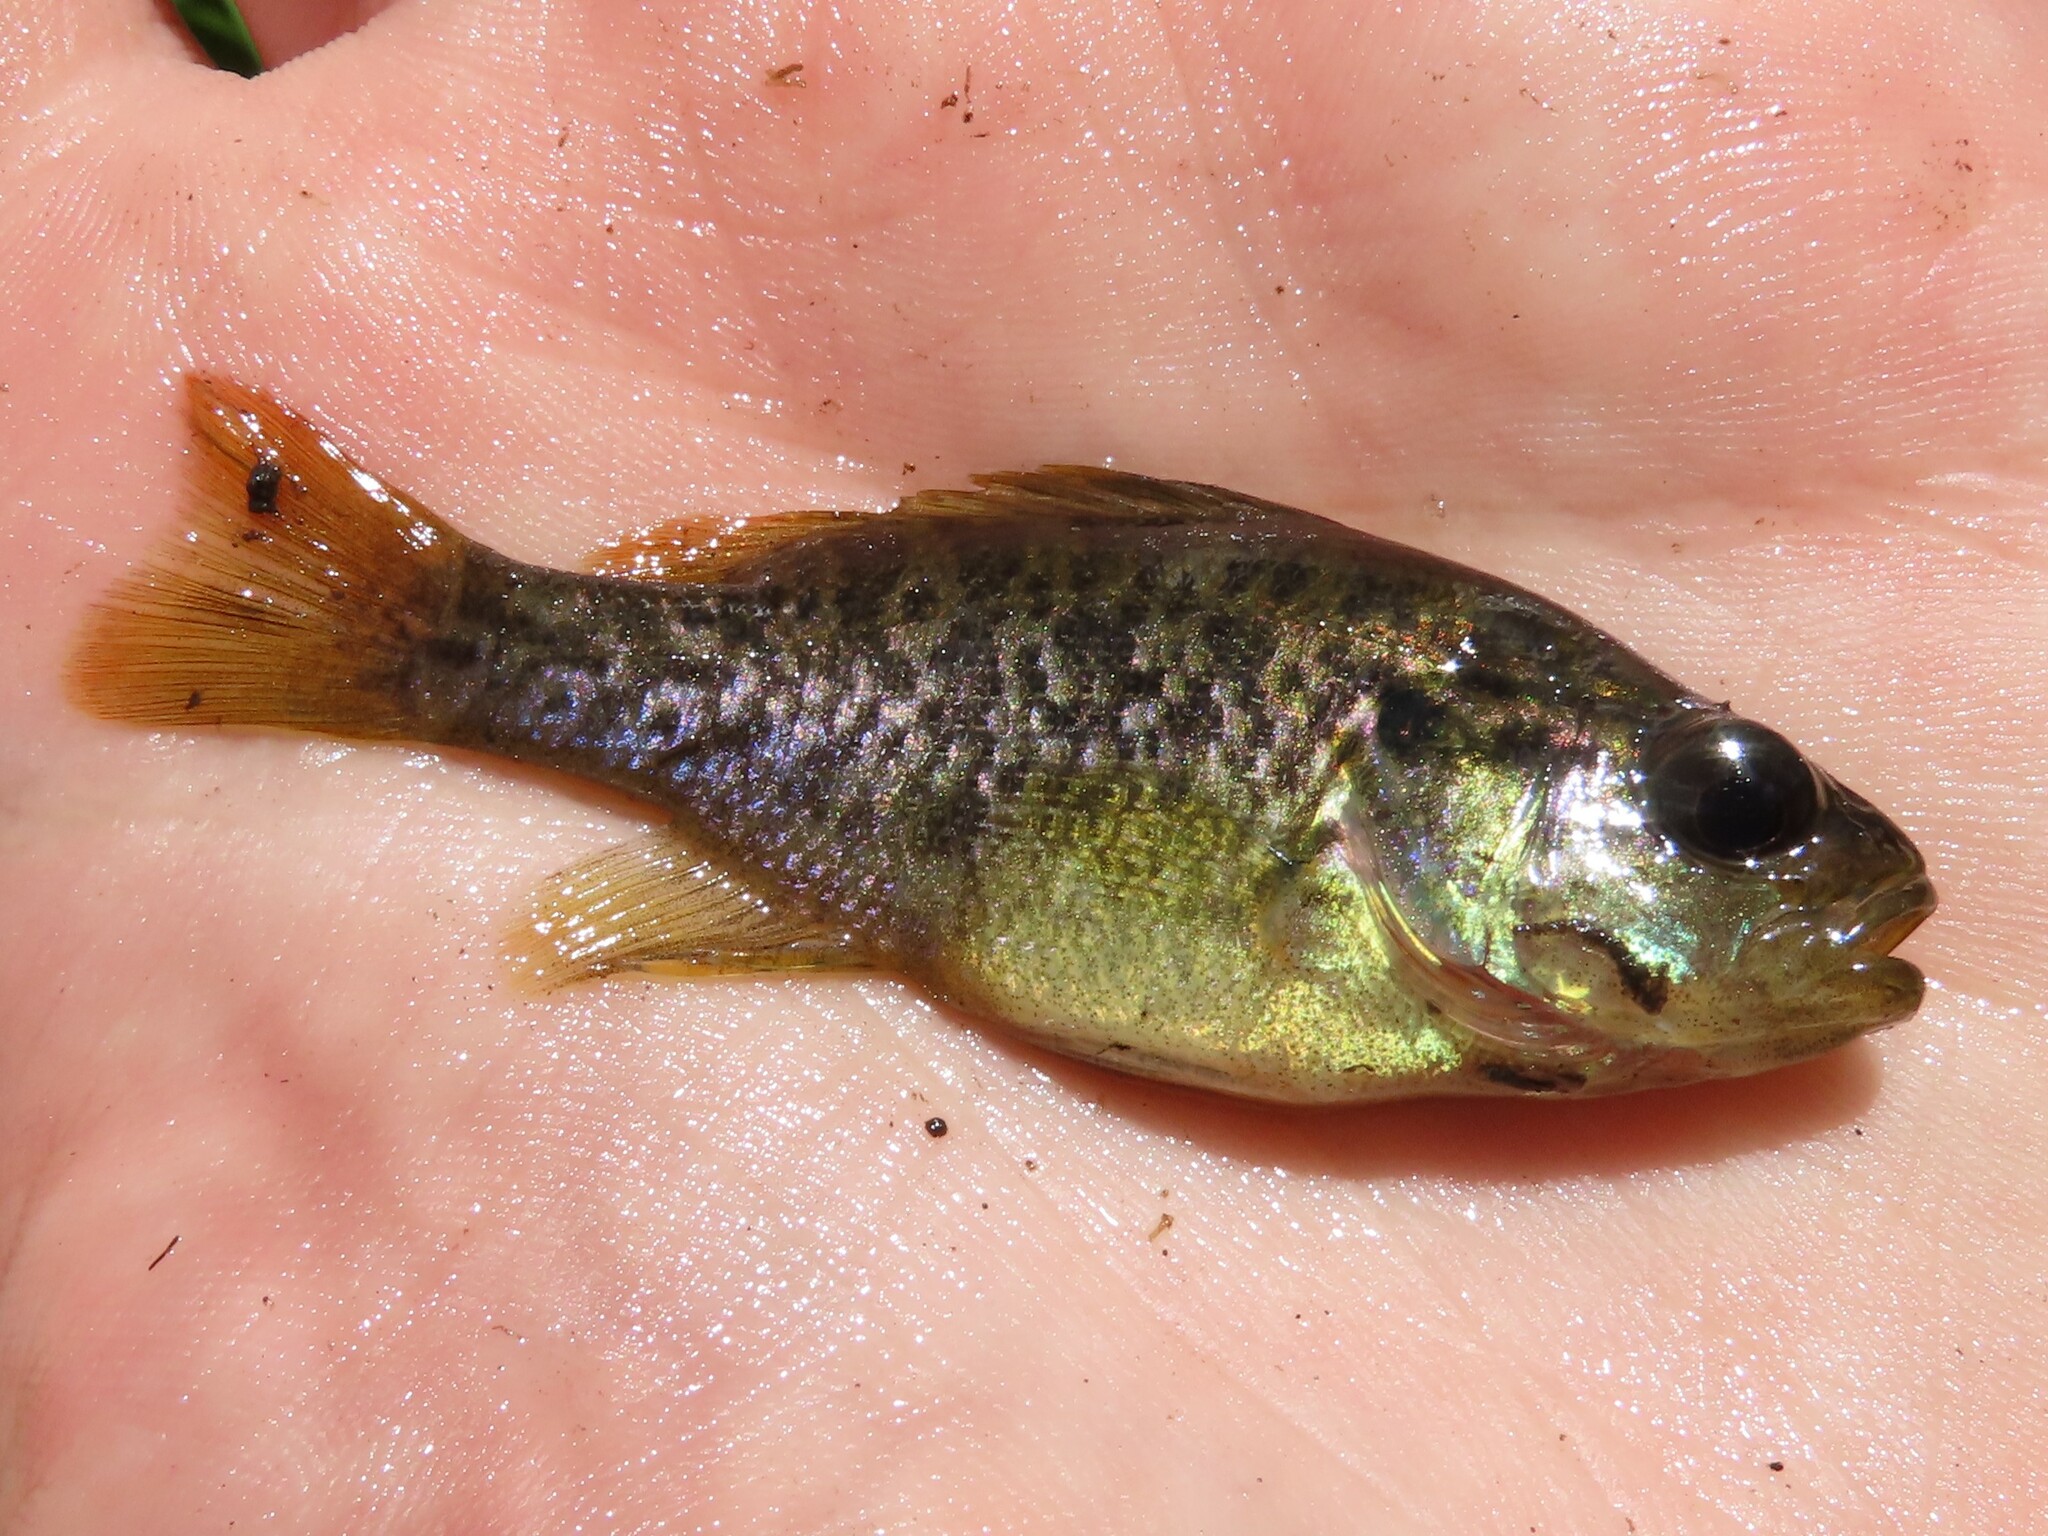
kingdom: Animalia
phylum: Chordata
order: Perciformes
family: Centrarchidae
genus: Lepomis
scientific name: Lepomis gulosus
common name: Warmouth
